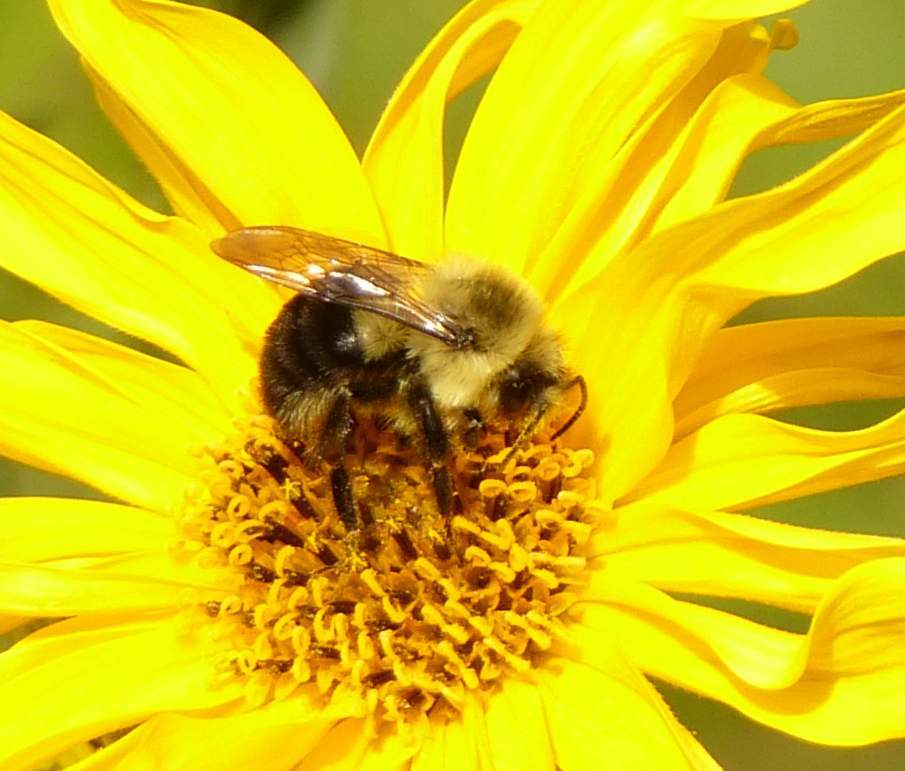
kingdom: Animalia
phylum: Arthropoda
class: Insecta
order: Hymenoptera
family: Apidae
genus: Bombus
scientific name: Bombus impatiens
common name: Common eastern bumble bee
